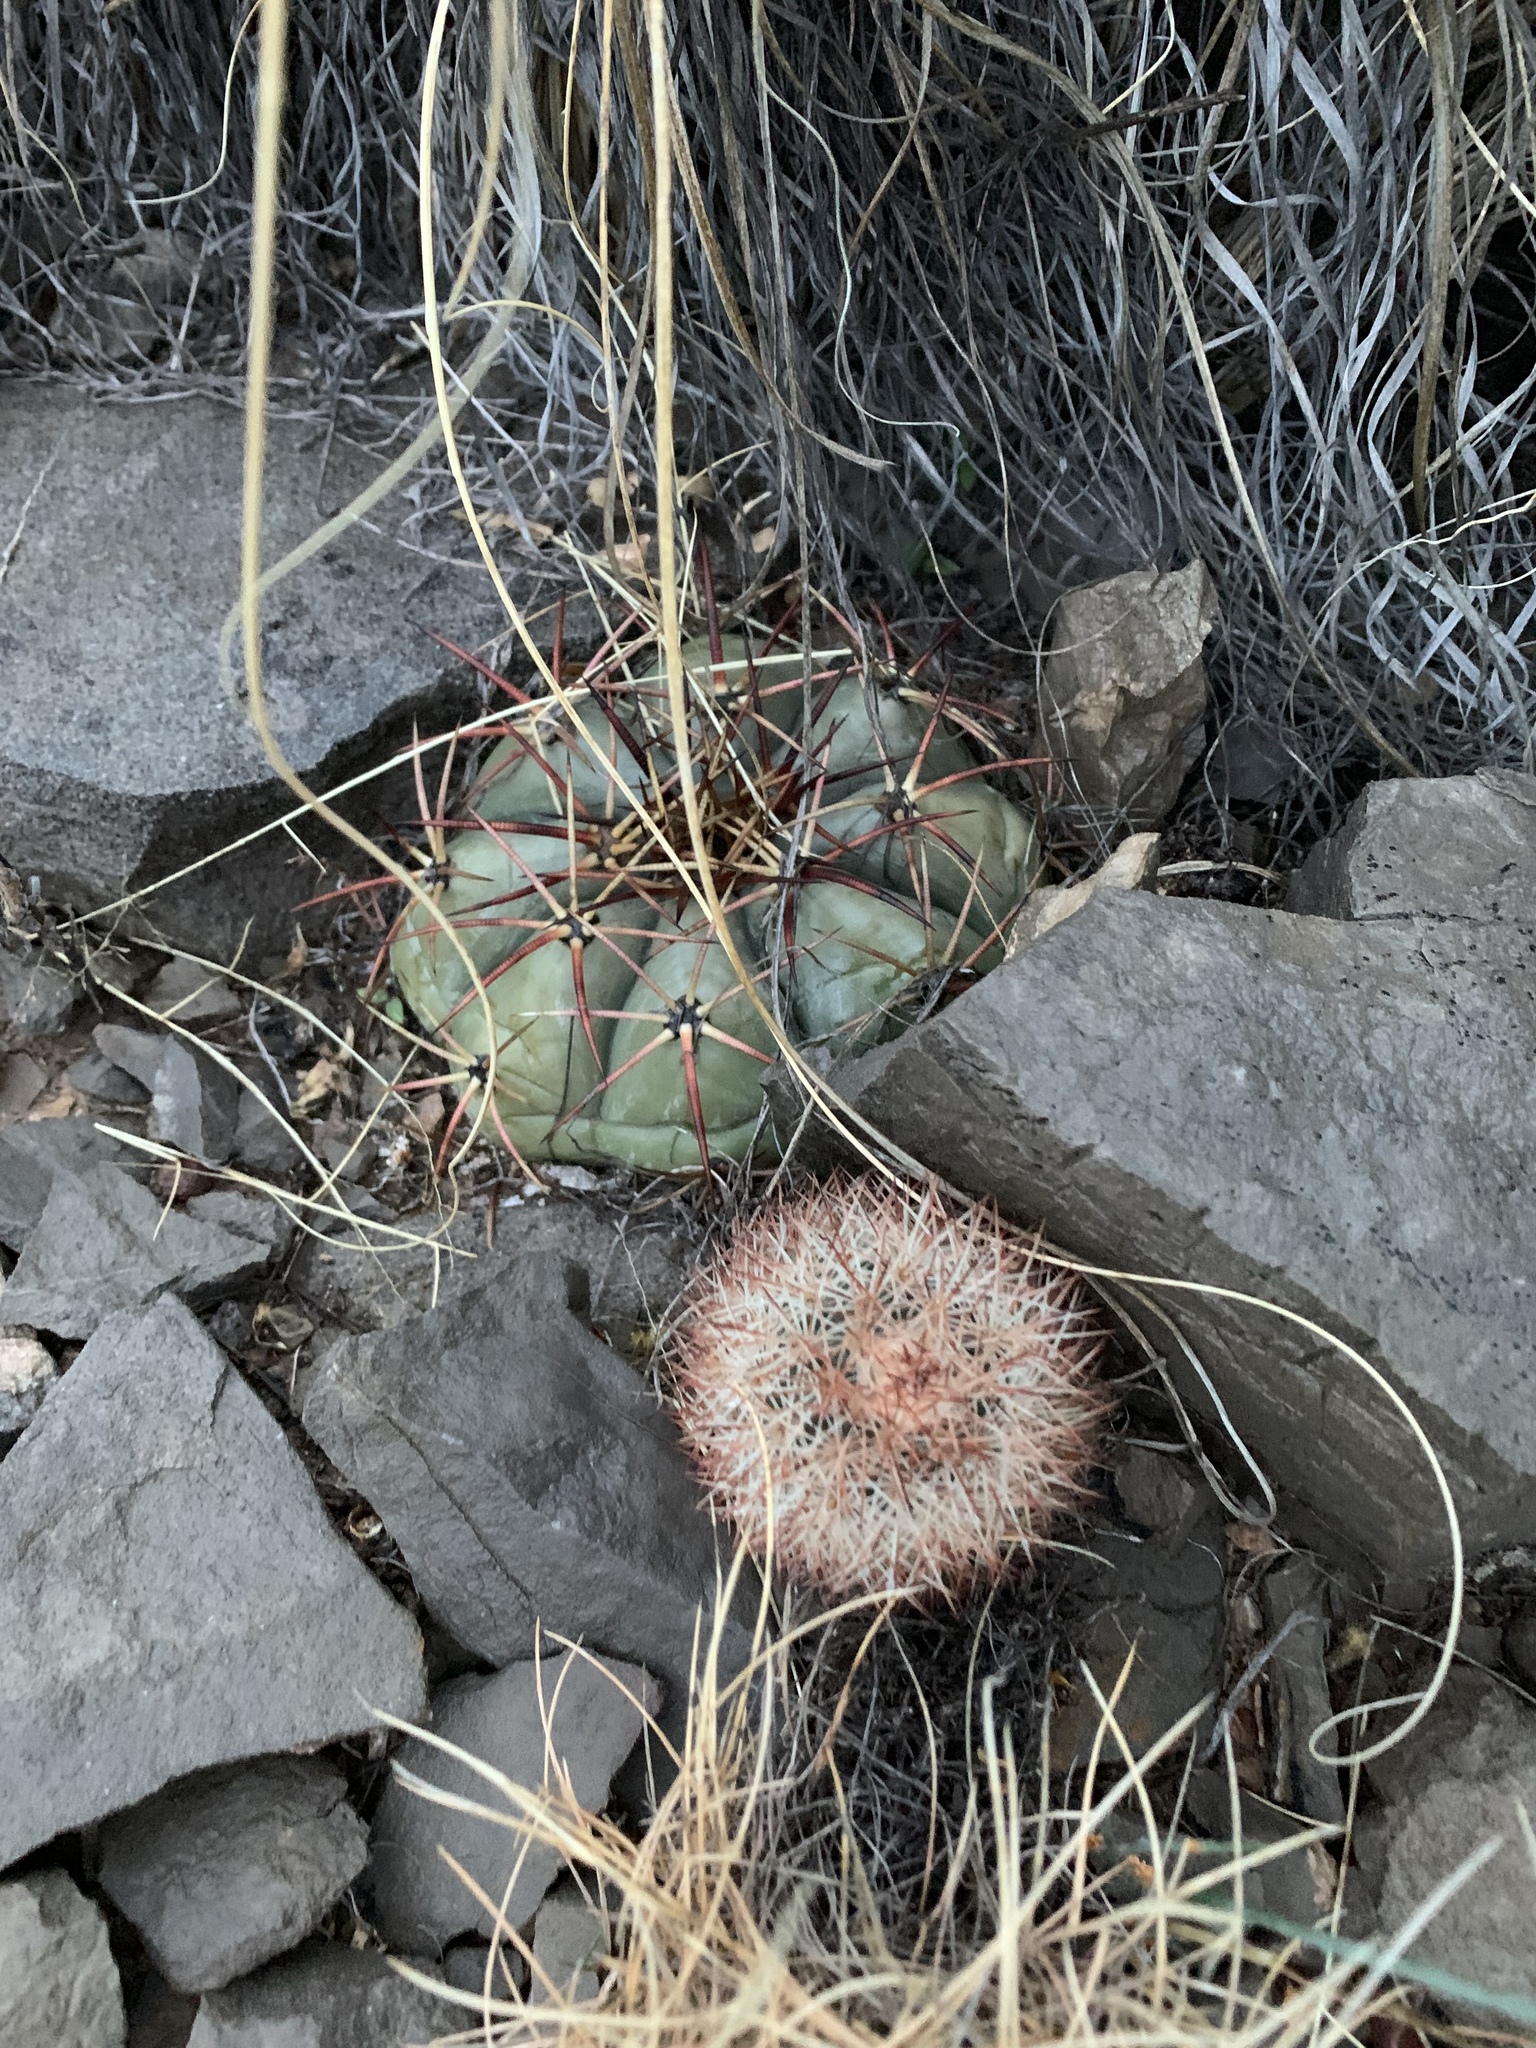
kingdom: Plantae
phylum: Tracheophyta
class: Magnoliopsida
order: Caryophyllales
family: Cactaceae
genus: Echinocactus
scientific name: Echinocactus horizonthalonius
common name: Devilshead
